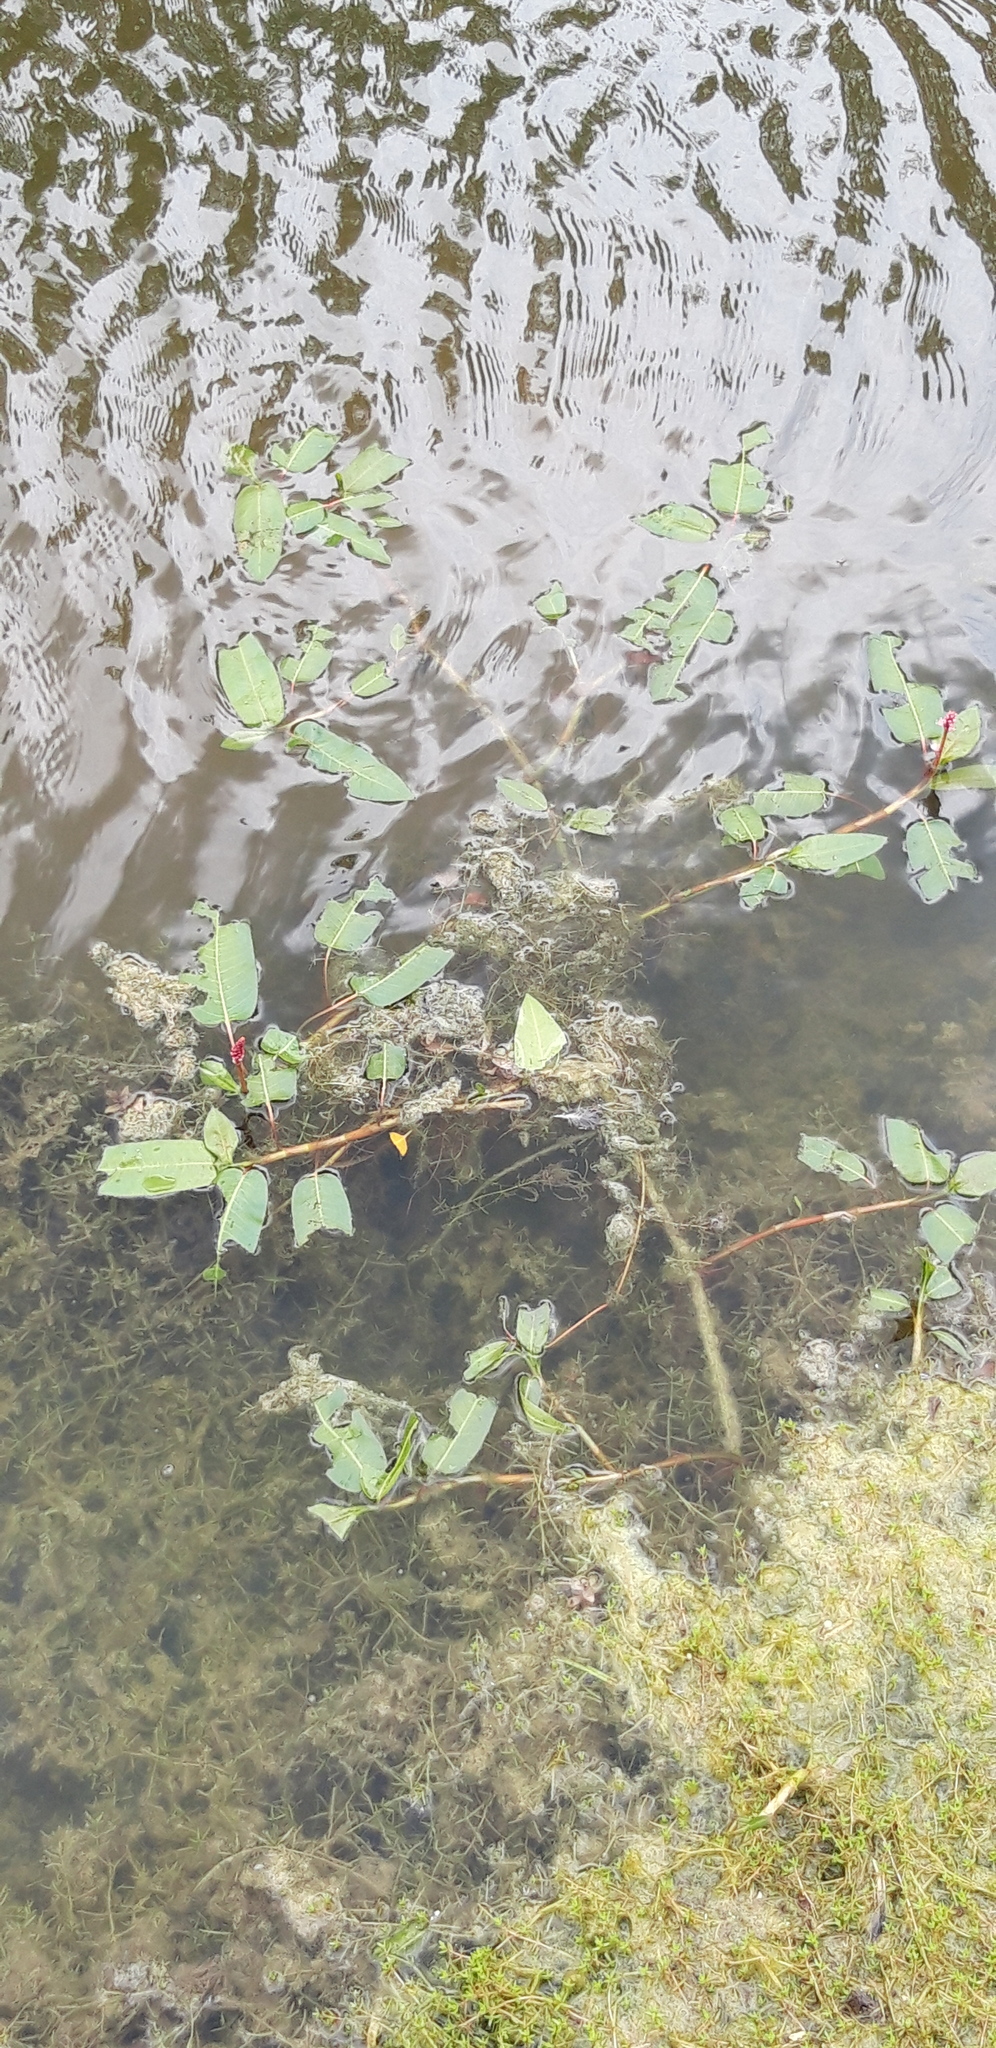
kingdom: Plantae
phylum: Tracheophyta
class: Magnoliopsida
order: Caryophyllales
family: Polygonaceae
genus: Persicaria
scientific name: Persicaria amphibia
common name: Amphibious bistort
